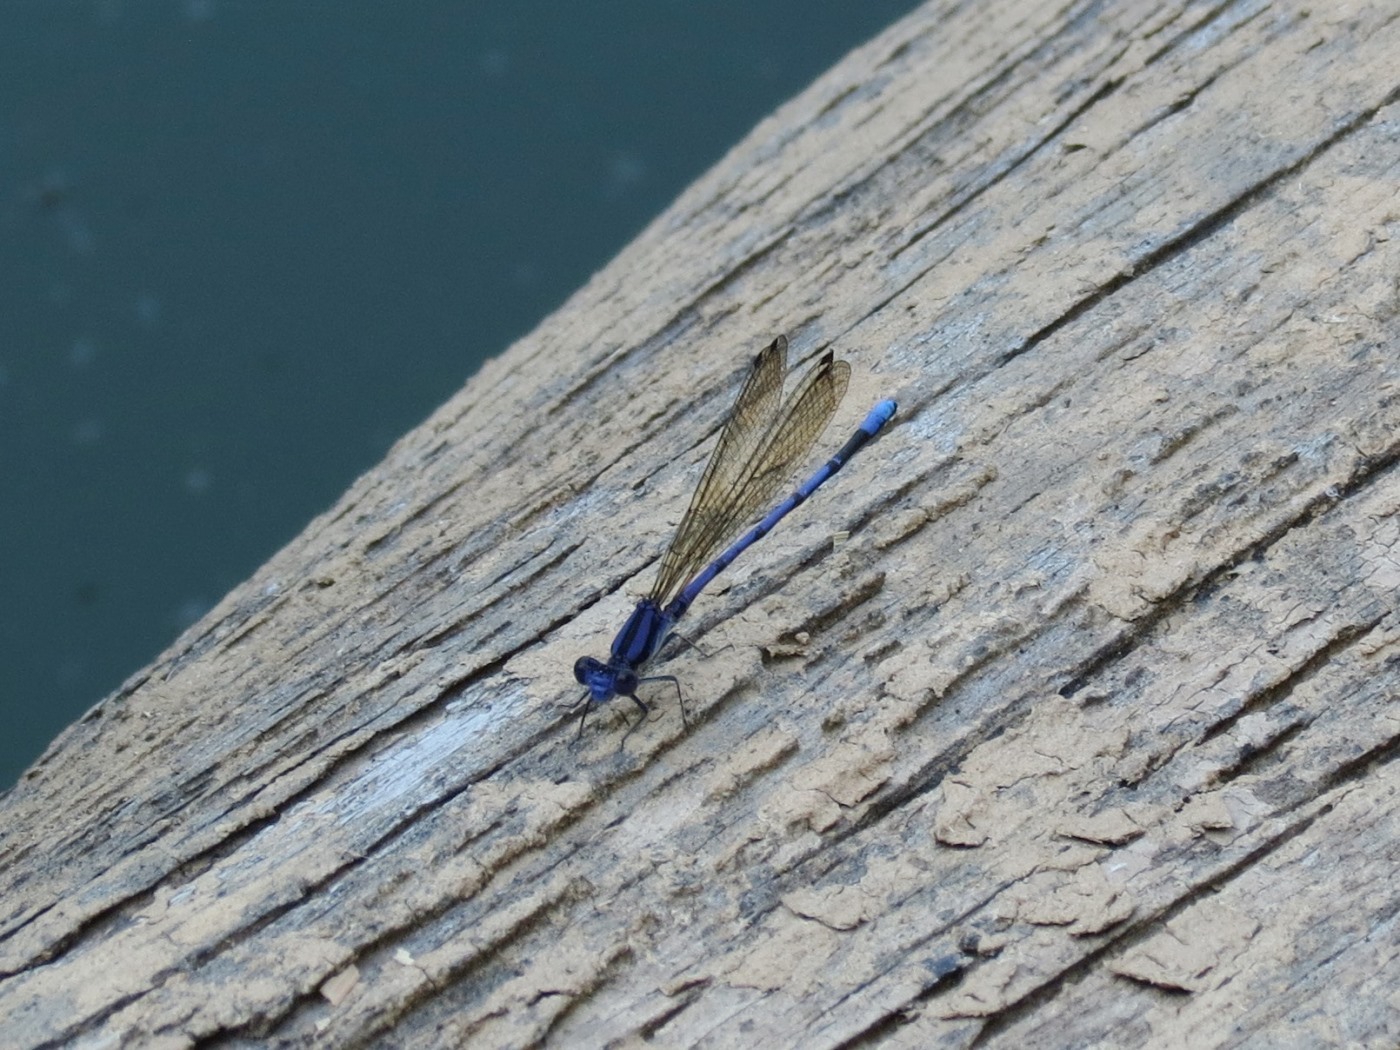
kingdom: Animalia
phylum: Arthropoda
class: Insecta
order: Odonata
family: Coenagrionidae
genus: Argia
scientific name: Argia fumipennis
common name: Variable dancer
